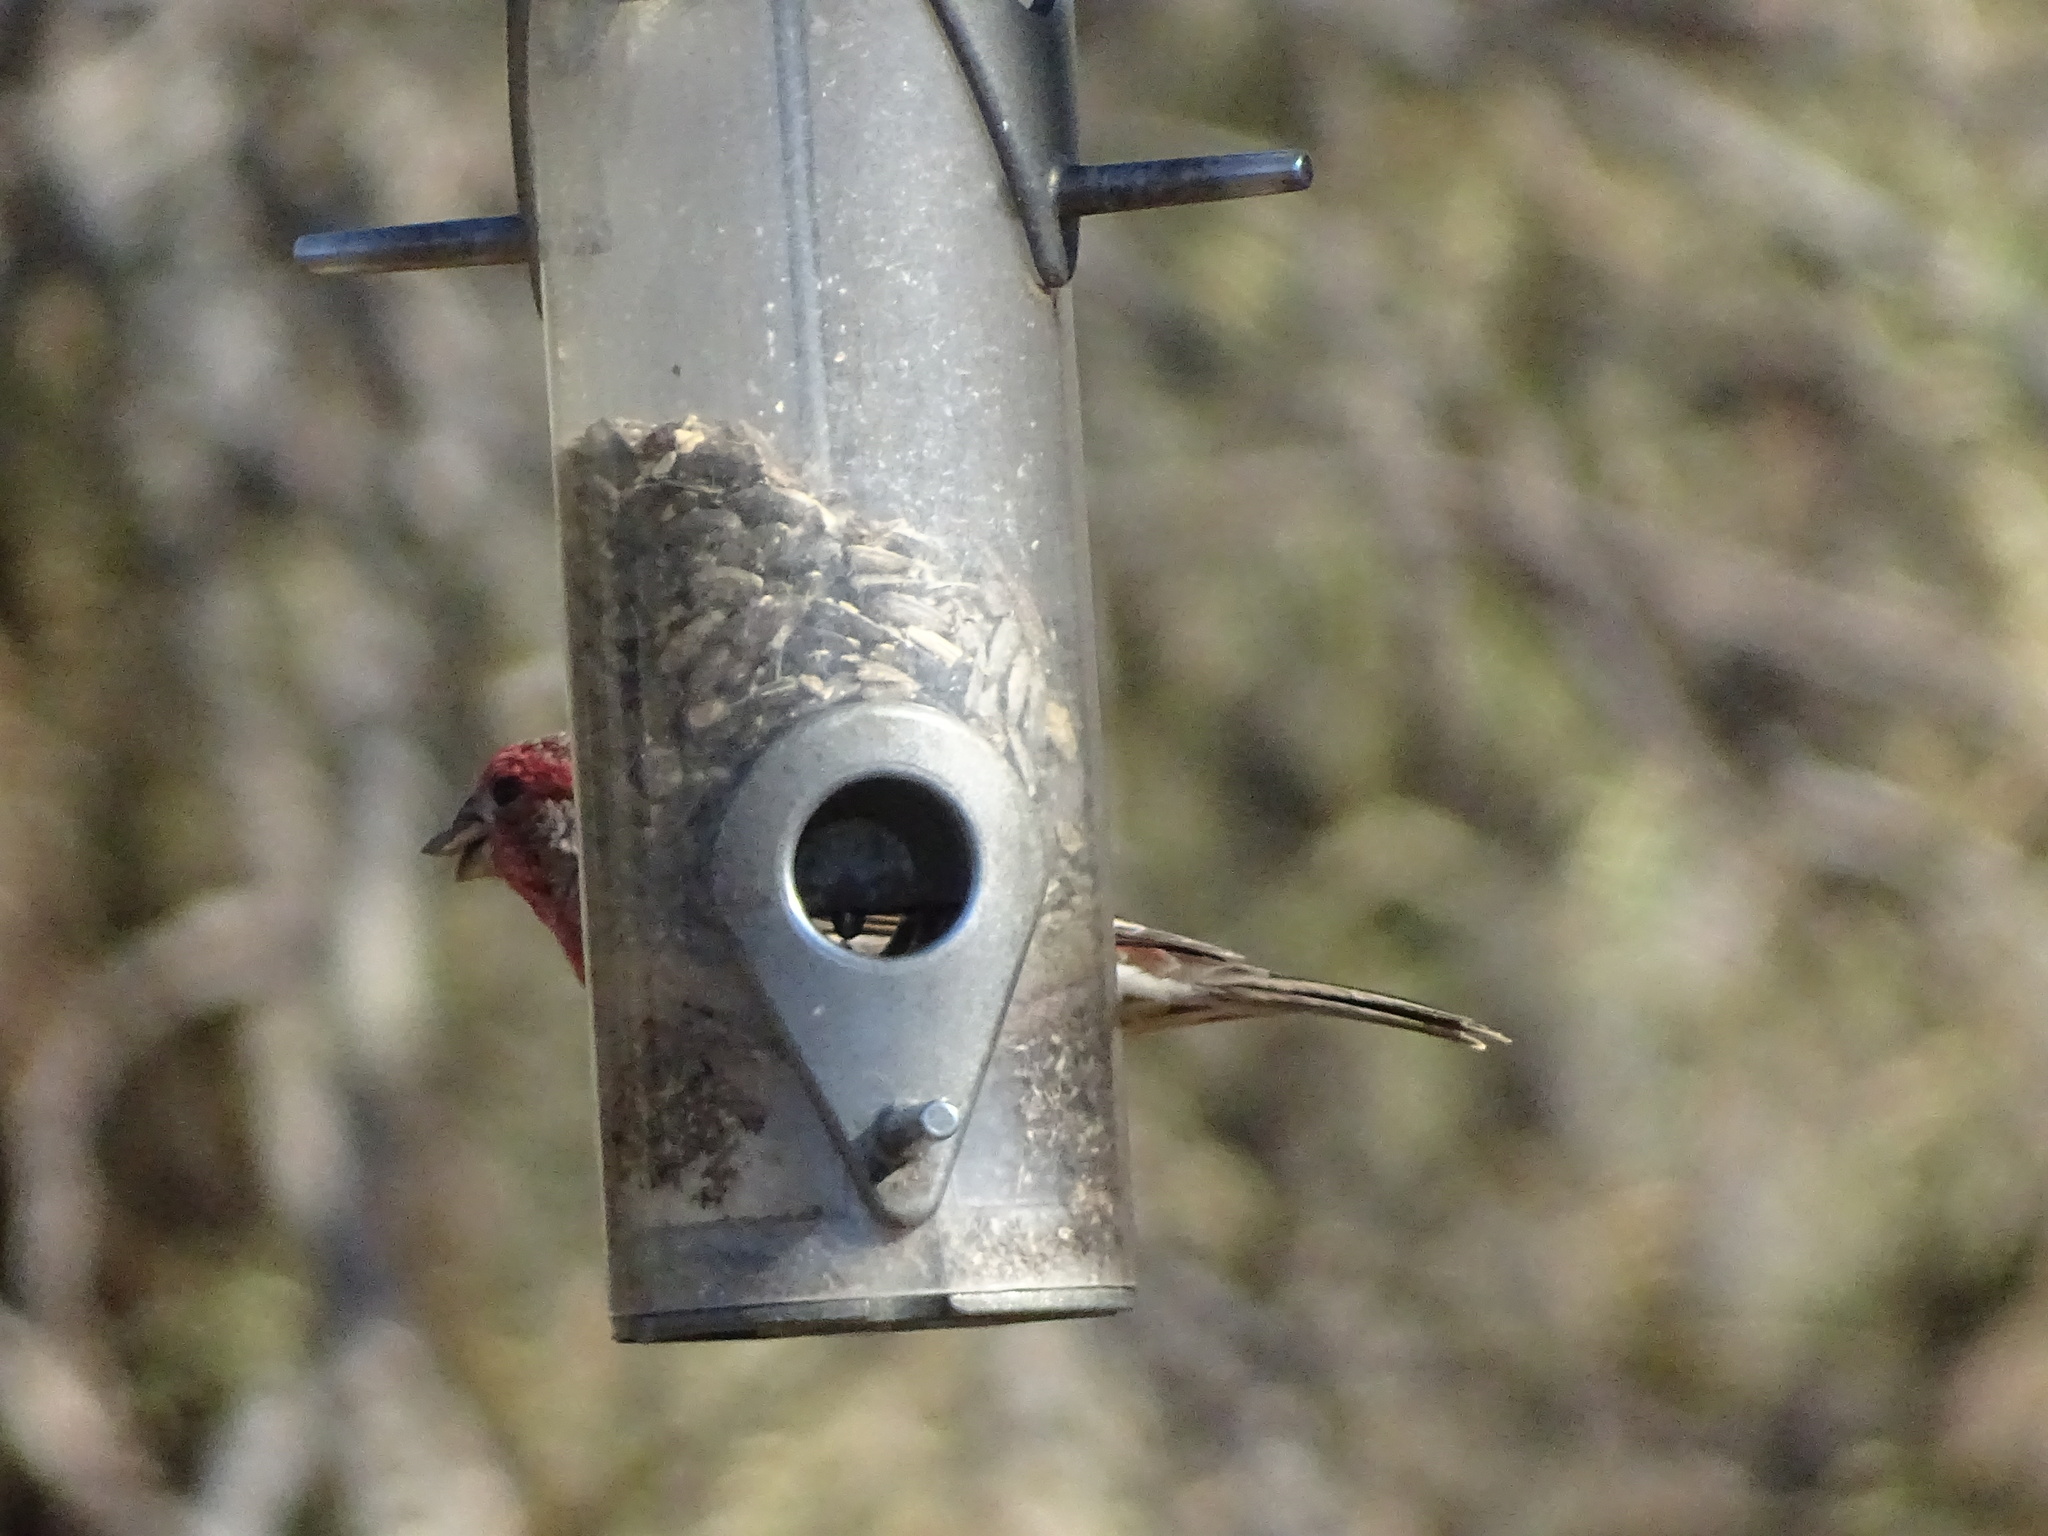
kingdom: Animalia
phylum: Chordata
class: Aves
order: Passeriformes
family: Fringillidae
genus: Haemorhous
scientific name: Haemorhous mexicanus
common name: House finch
